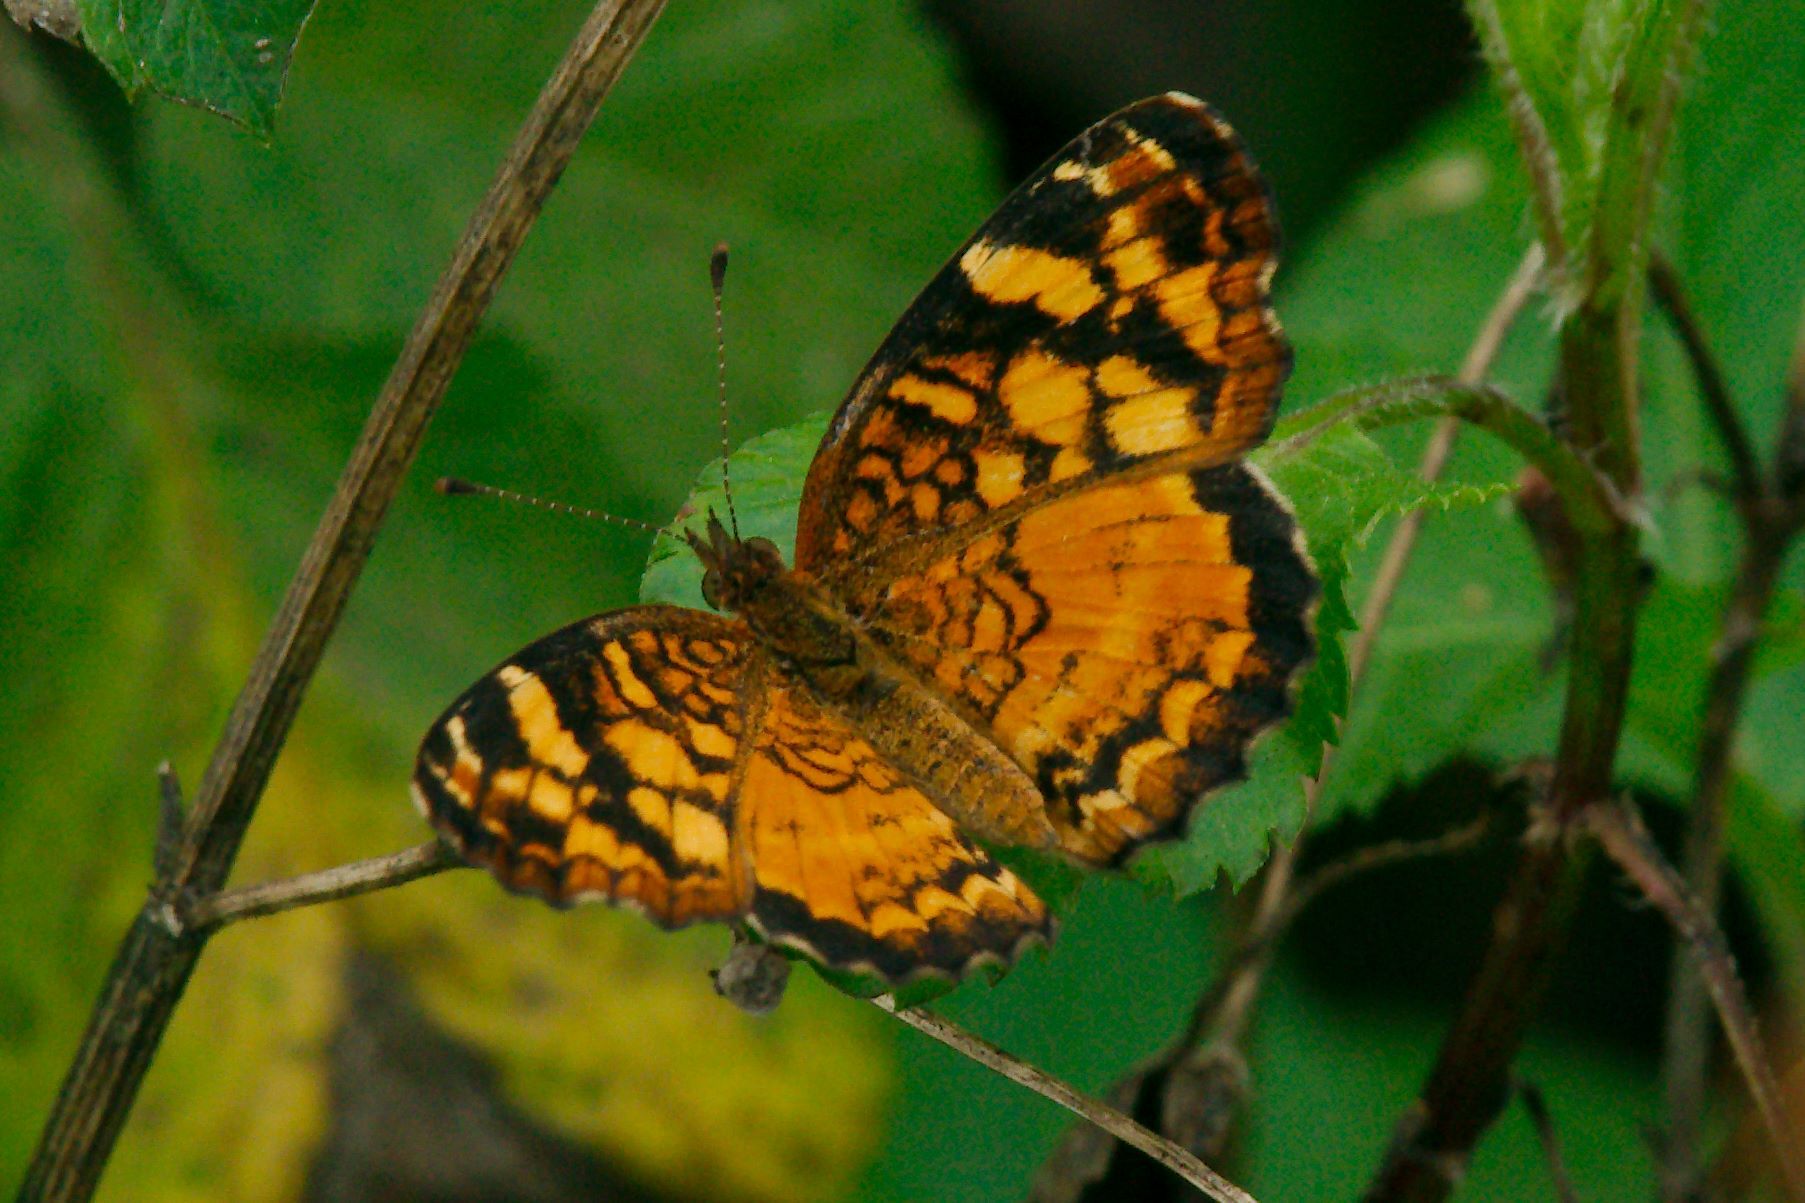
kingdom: Animalia
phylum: Arthropoda
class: Insecta
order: Lepidoptera
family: Nymphalidae
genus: Anthanassa
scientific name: Anthanassa frisia
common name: Cuban crescent
